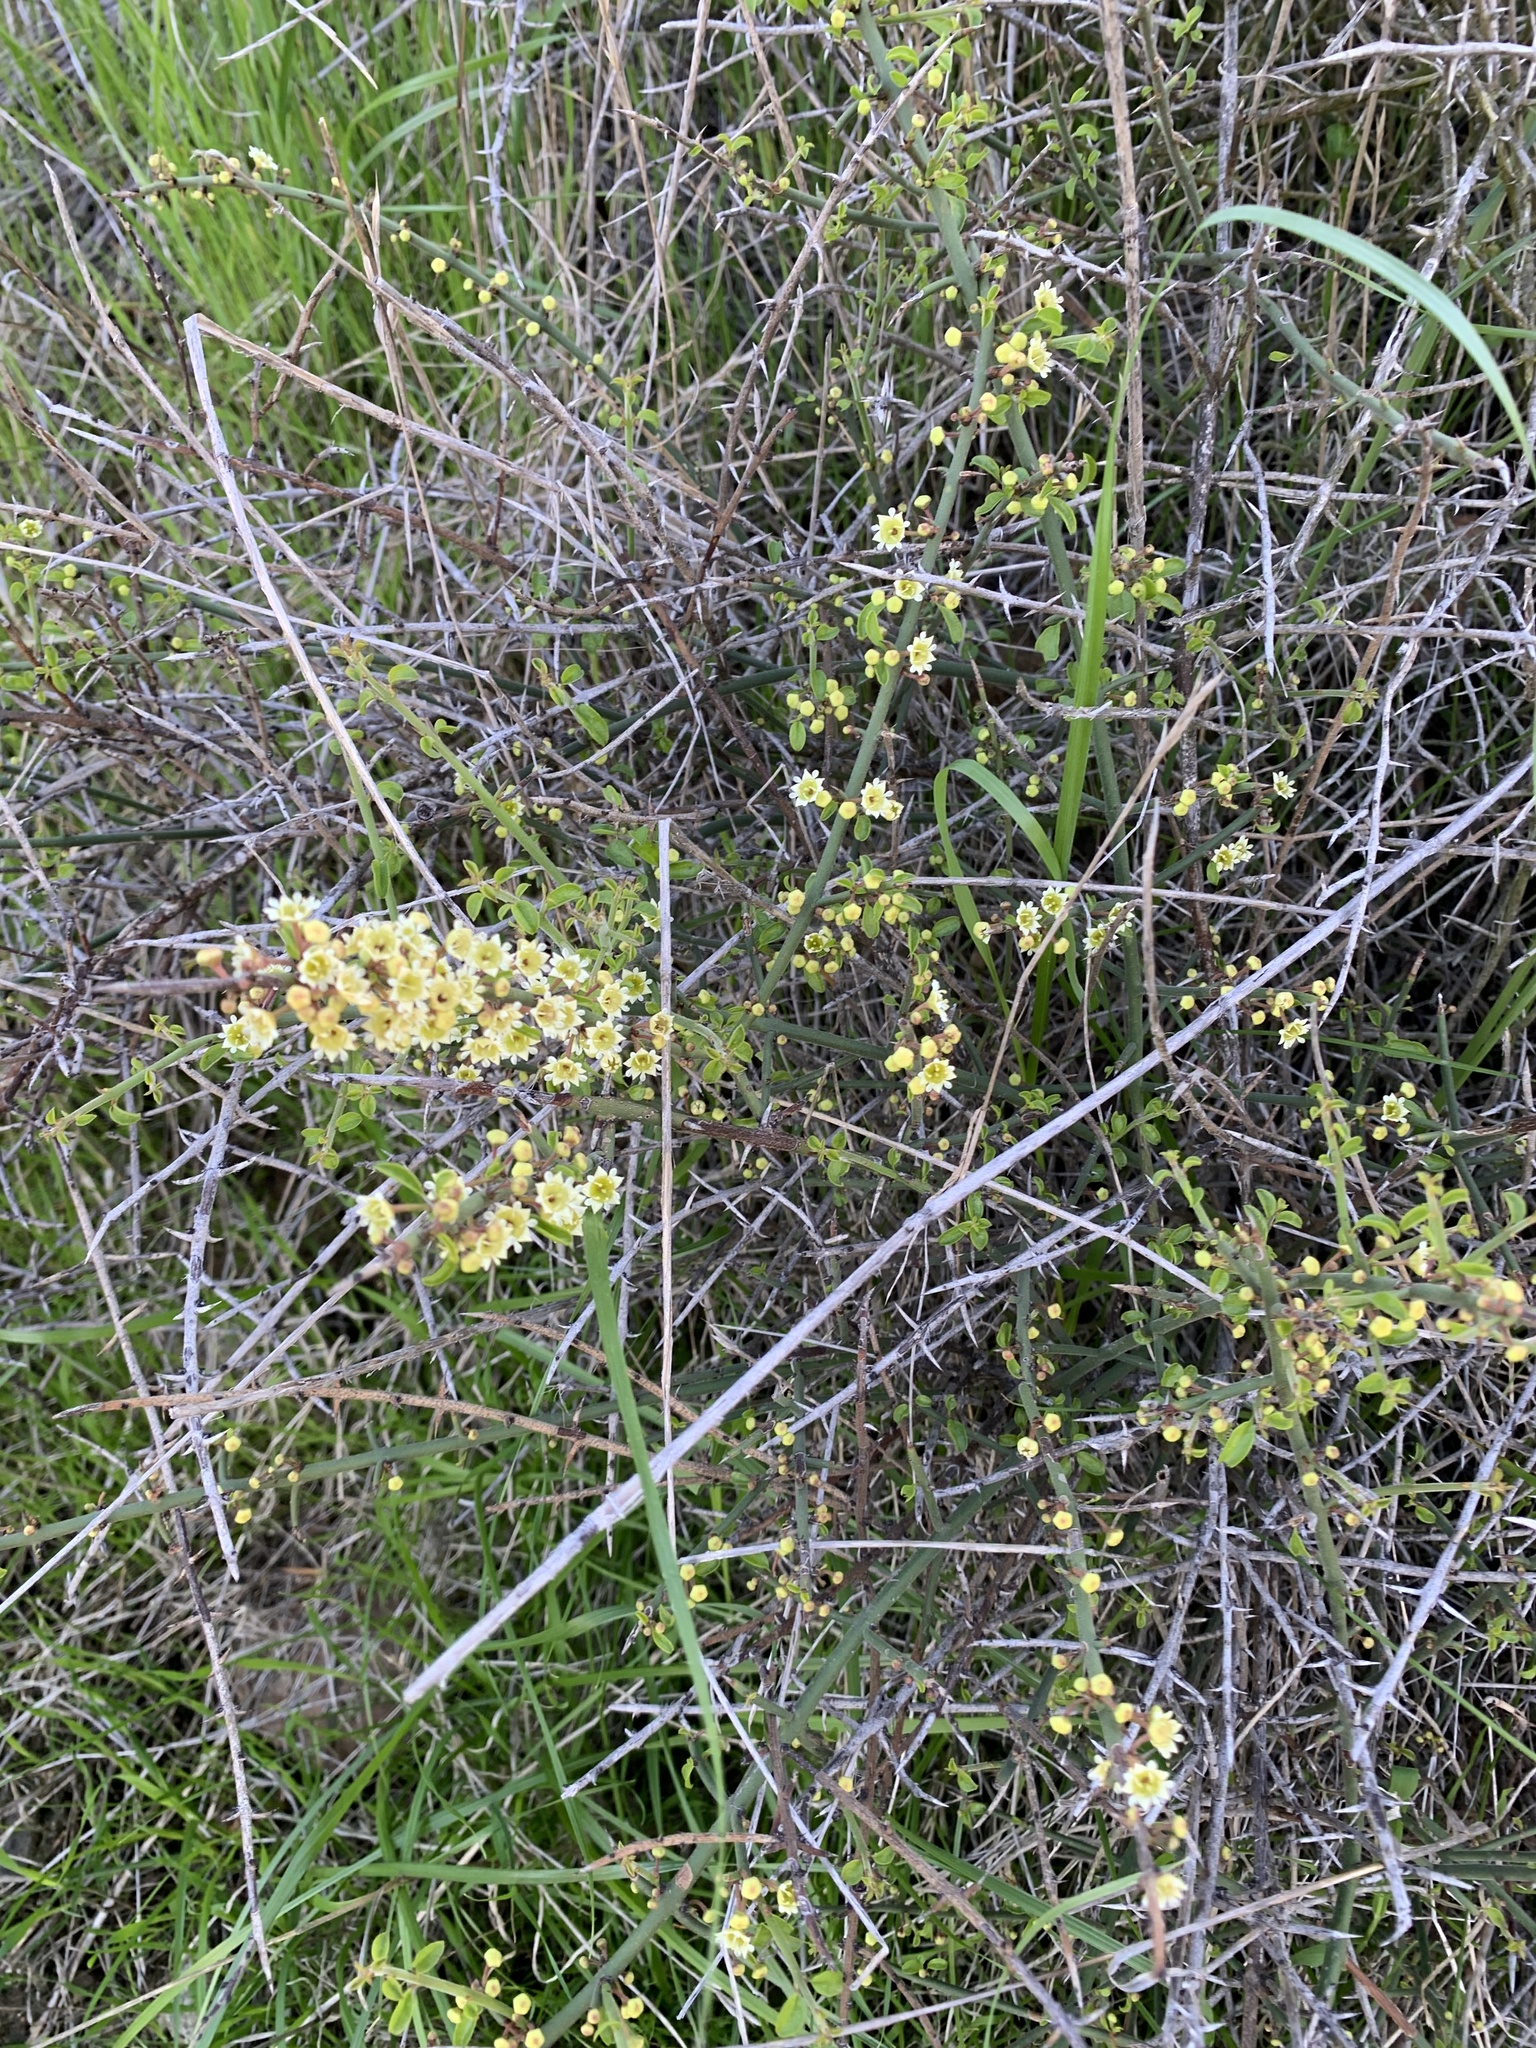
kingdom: Plantae
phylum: Tracheophyta
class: Magnoliopsida
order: Rosales
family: Rhamnaceae
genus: Adolphia
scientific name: Adolphia californica
